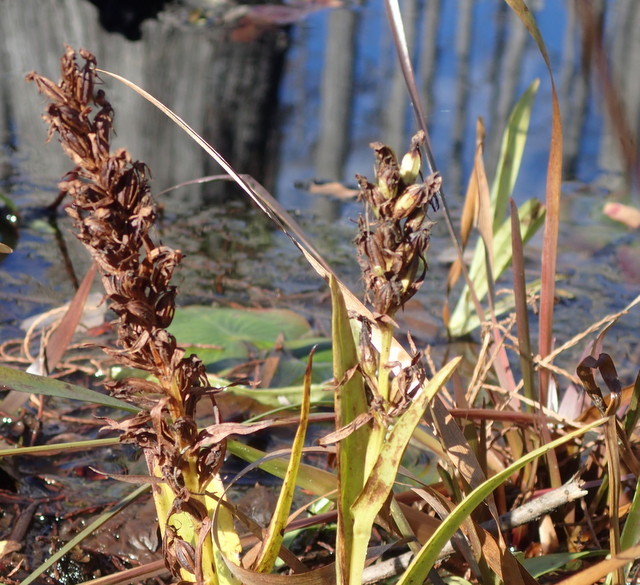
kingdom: Plantae
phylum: Tracheophyta
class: Liliopsida
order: Asparagales
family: Orchidaceae
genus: Habenaria
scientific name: Habenaria repens
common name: Water orchid
